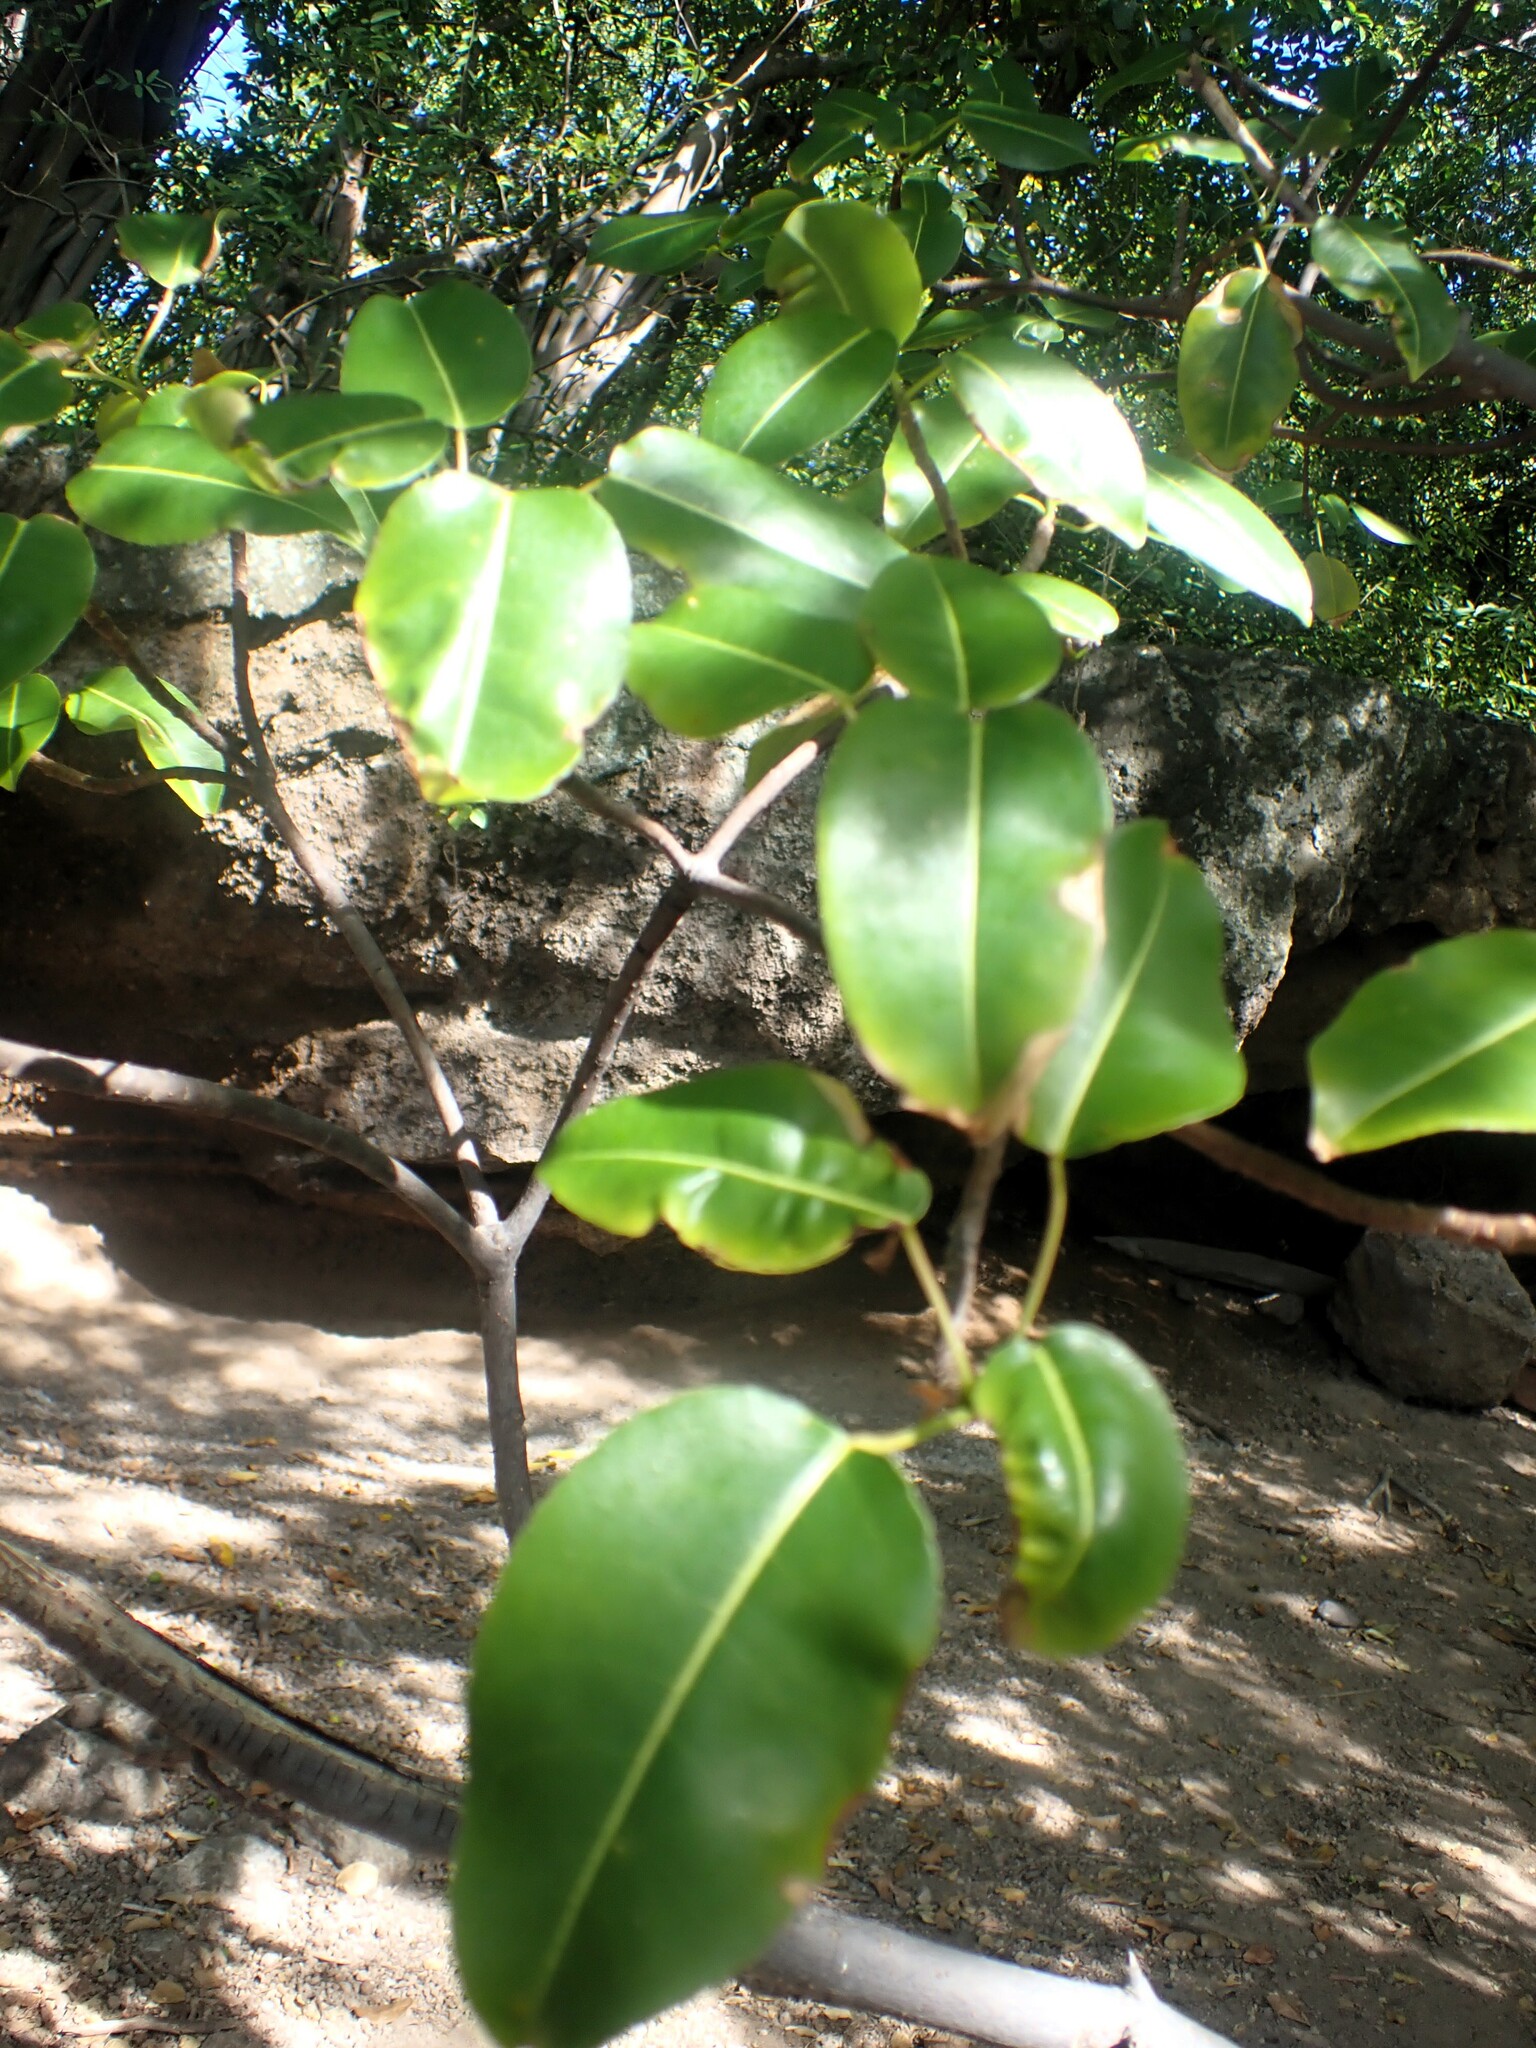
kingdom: Plantae
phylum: Tracheophyta
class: Magnoliopsida
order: Malpighiales
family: Euphorbiaceae
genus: Hippomane
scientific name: Hippomane mancinella
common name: Manchineel
